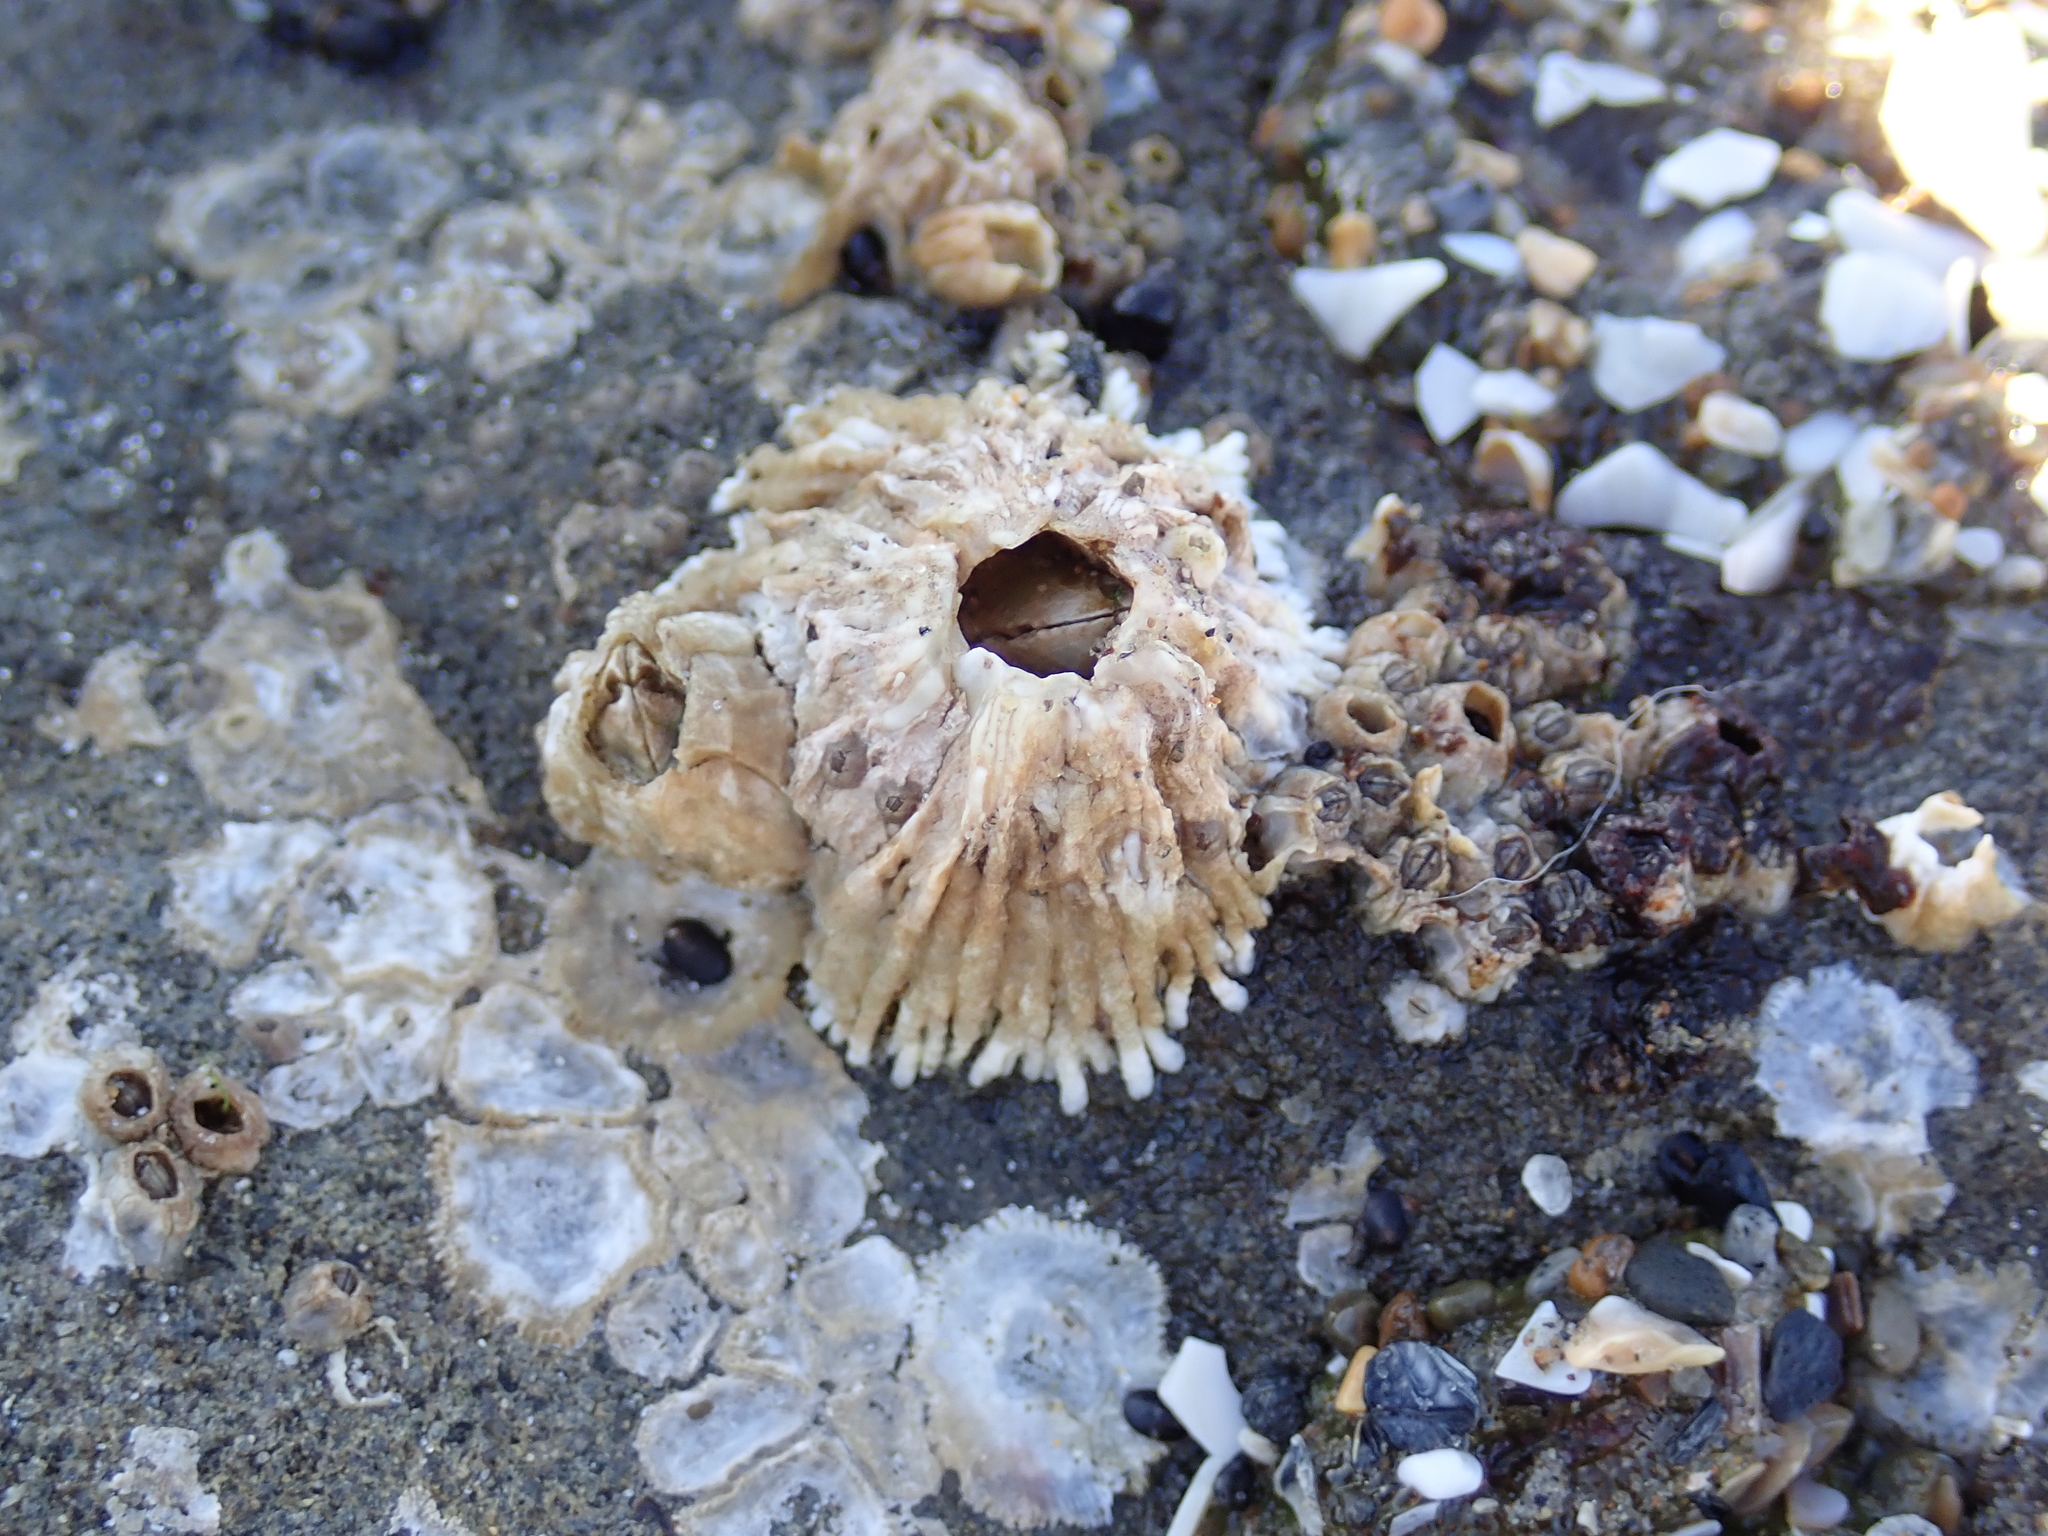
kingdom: Animalia
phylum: Arthropoda
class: Maxillopoda
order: Sessilia
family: Archaeobalanidae
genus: Semibalanus
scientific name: Semibalanus cariosus
